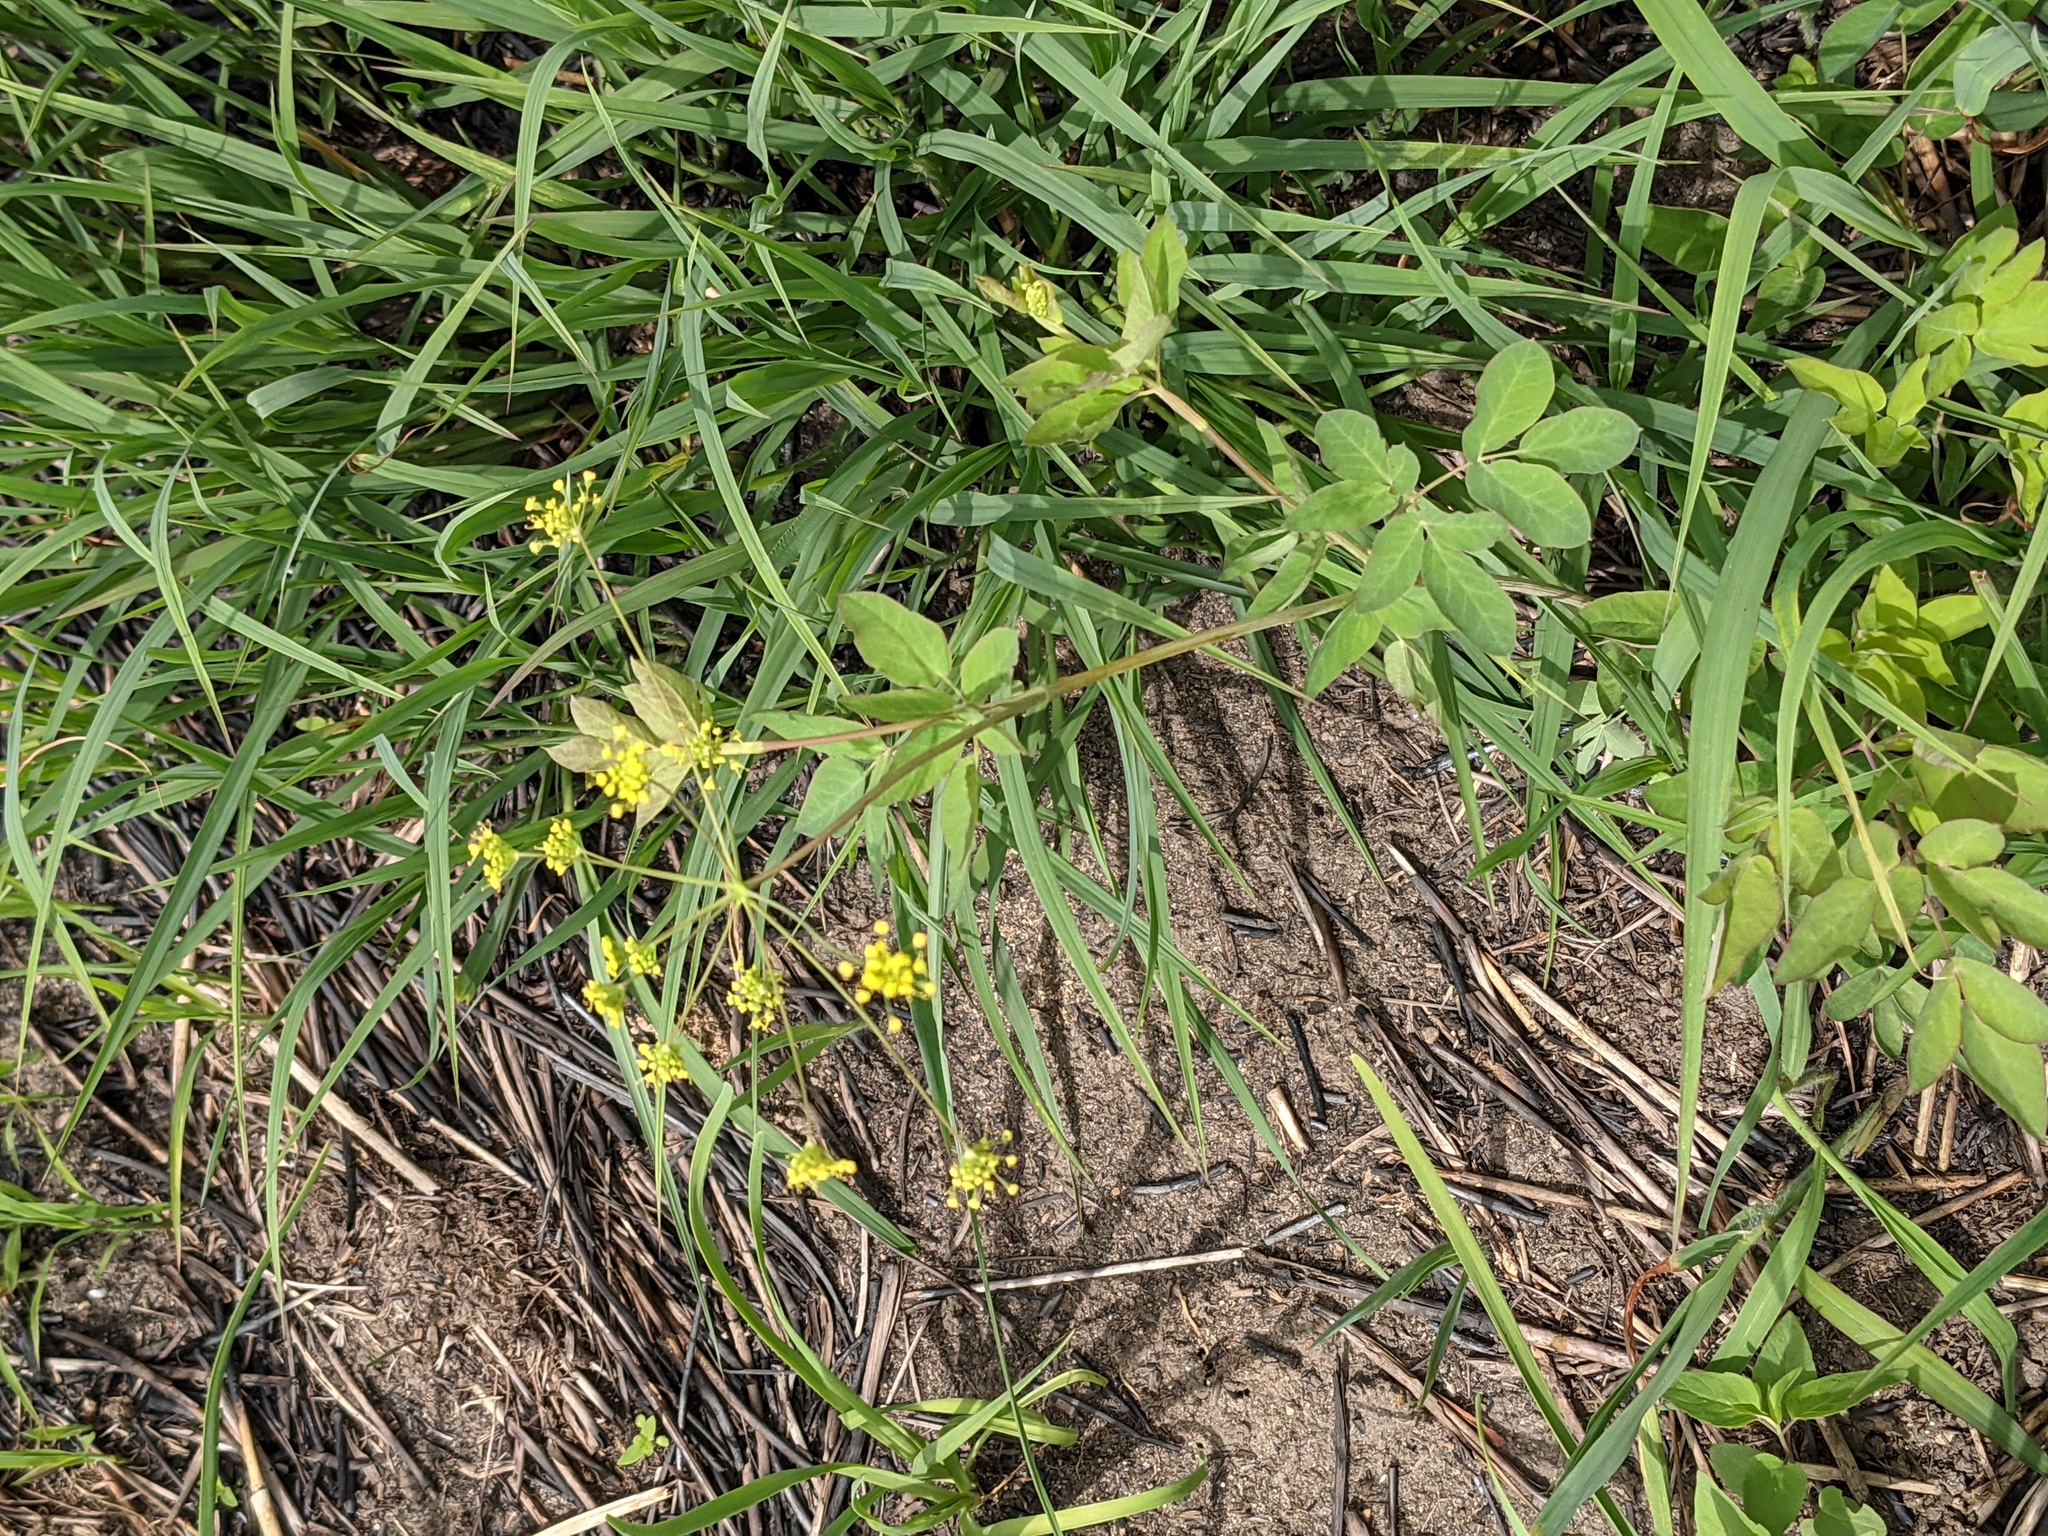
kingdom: Plantae
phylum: Tracheophyta
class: Magnoliopsida
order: Apiales
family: Apiaceae
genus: Taenidia
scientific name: Taenidia integerrima
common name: Golden alexander
